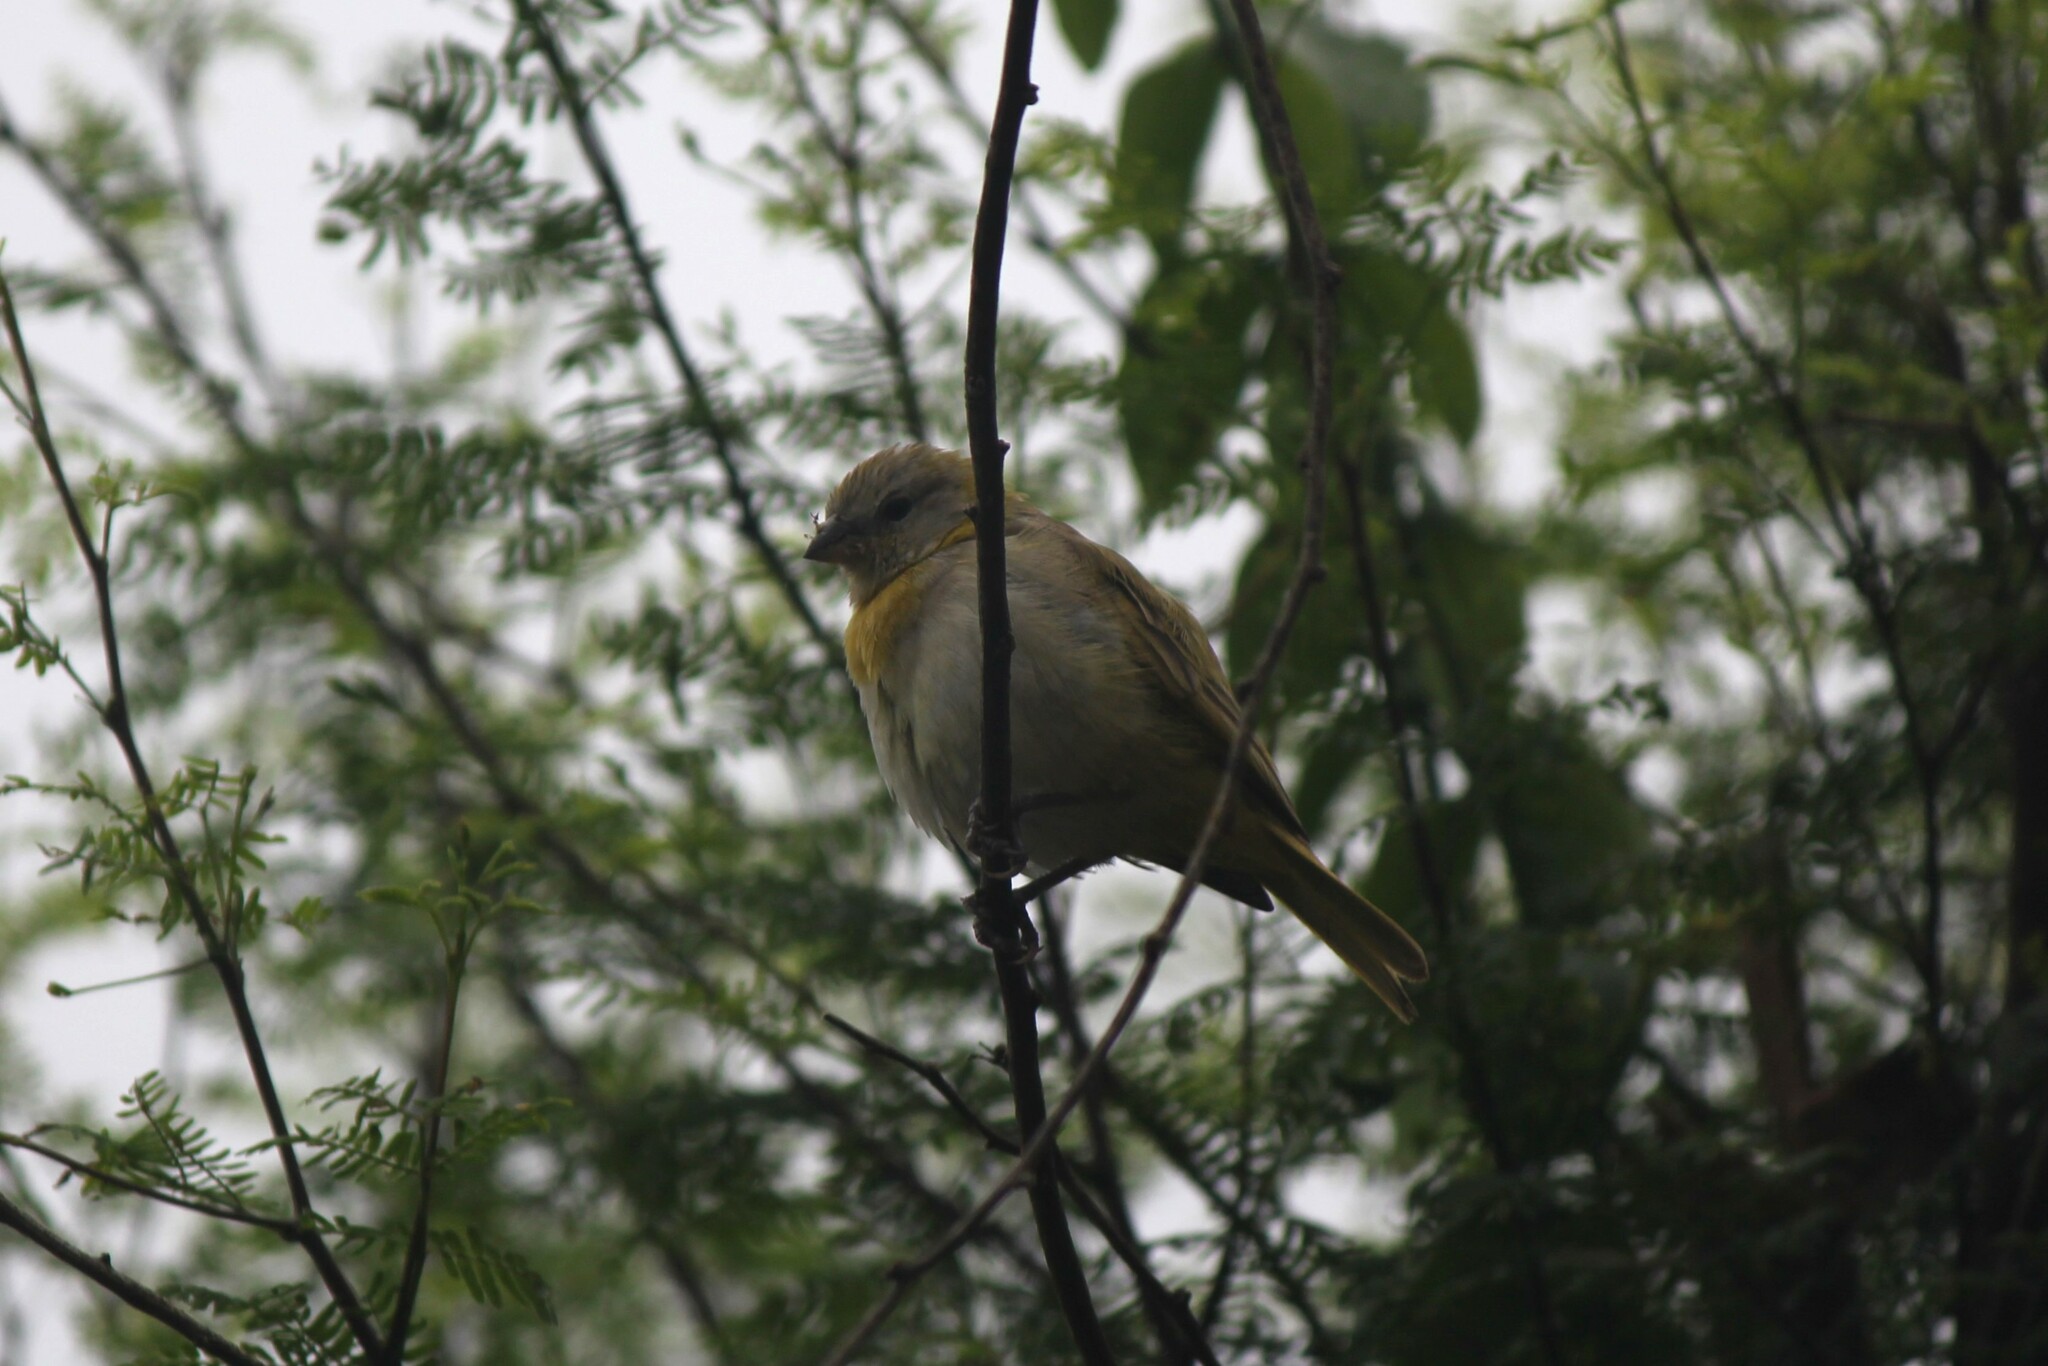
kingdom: Animalia
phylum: Chordata
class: Aves
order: Passeriformes
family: Thraupidae
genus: Sicalis
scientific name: Sicalis flaveola
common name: Saffron finch
